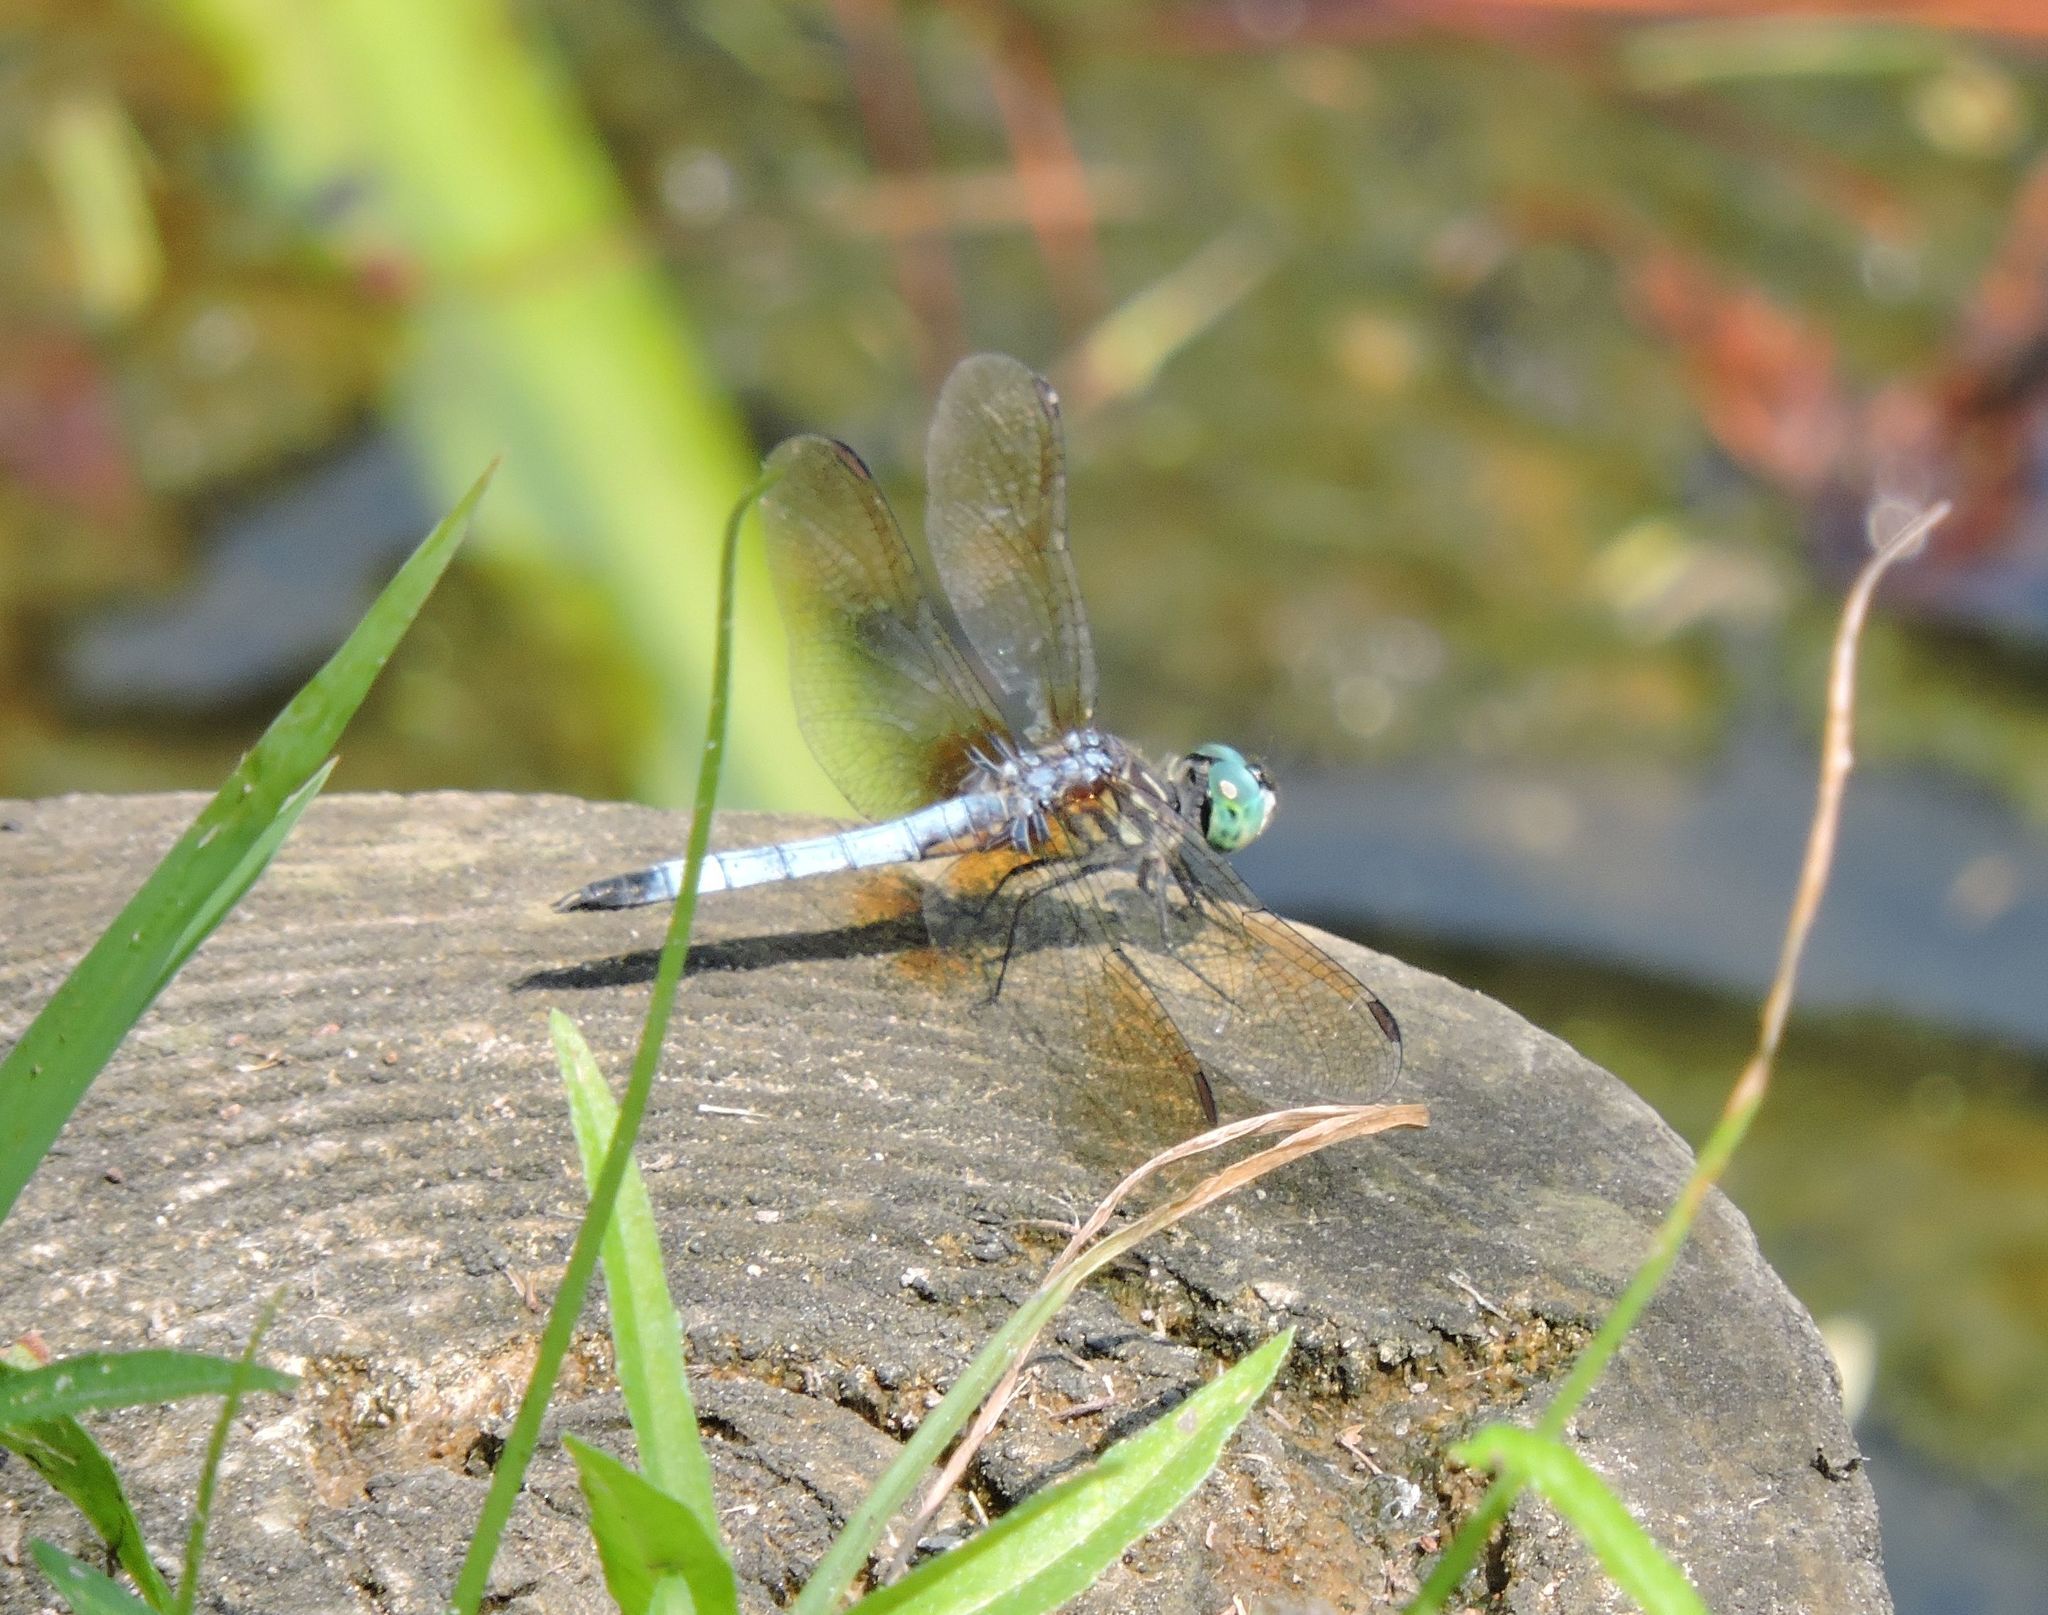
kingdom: Animalia
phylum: Arthropoda
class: Insecta
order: Odonata
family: Libellulidae
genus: Pachydiplax
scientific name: Pachydiplax longipennis
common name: Blue dasher
